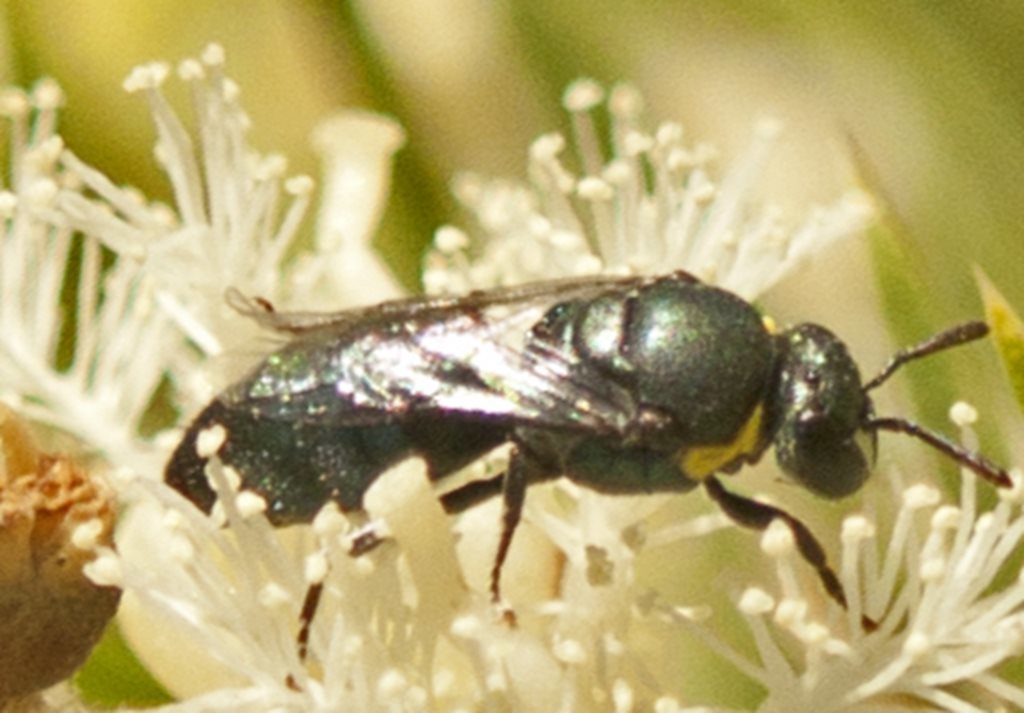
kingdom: Animalia
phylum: Arthropoda
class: Insecta
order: Hymenoptera
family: Colletidae
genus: Hylaeus
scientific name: Hylaeus chromaticus
